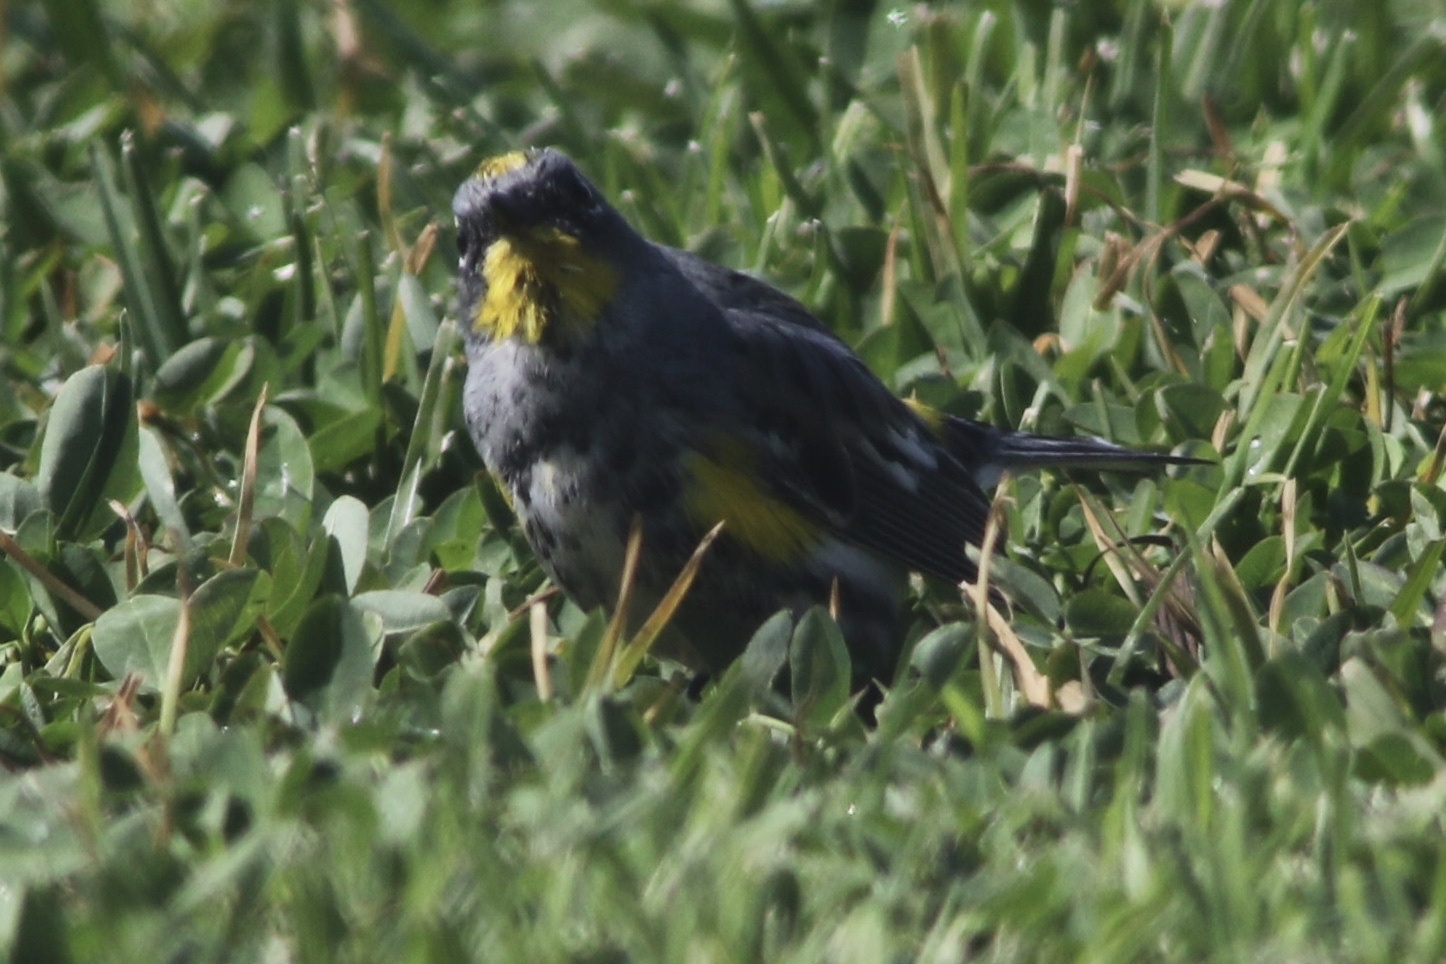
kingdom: Animalia
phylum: Chordata
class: Aves
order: Passeriformes
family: Parulidae
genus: Setophaga
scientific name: Setophaga coronata
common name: Myrtle warbler
